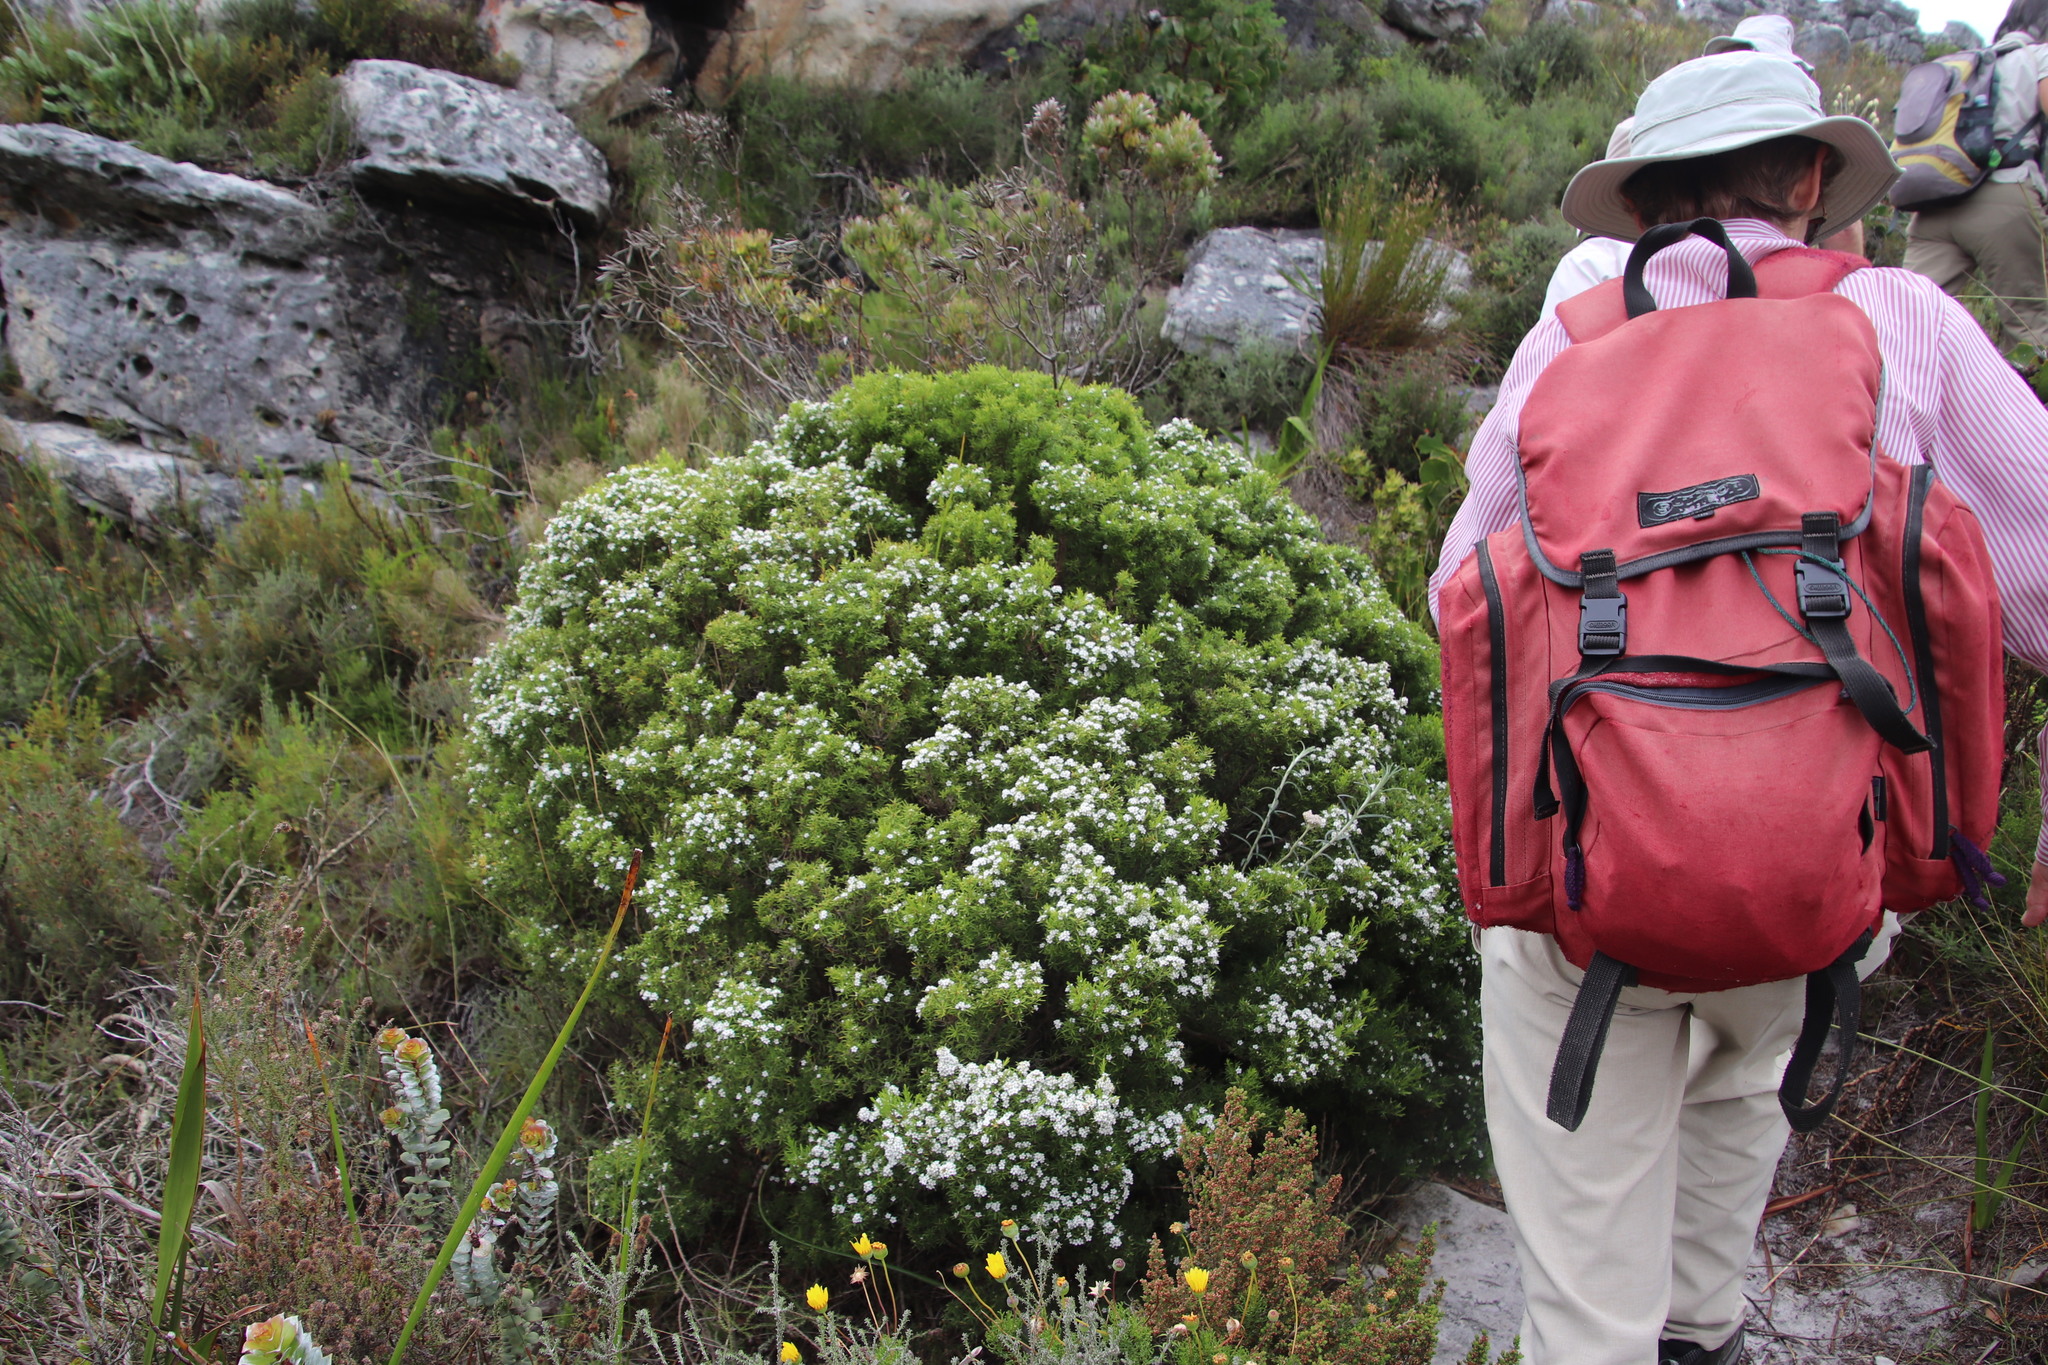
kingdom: Plantae
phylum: Tracheophyta
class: Magnoliopsida
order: Sapindales
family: Rutaceae
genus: Coleonema
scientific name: Coleonema album
